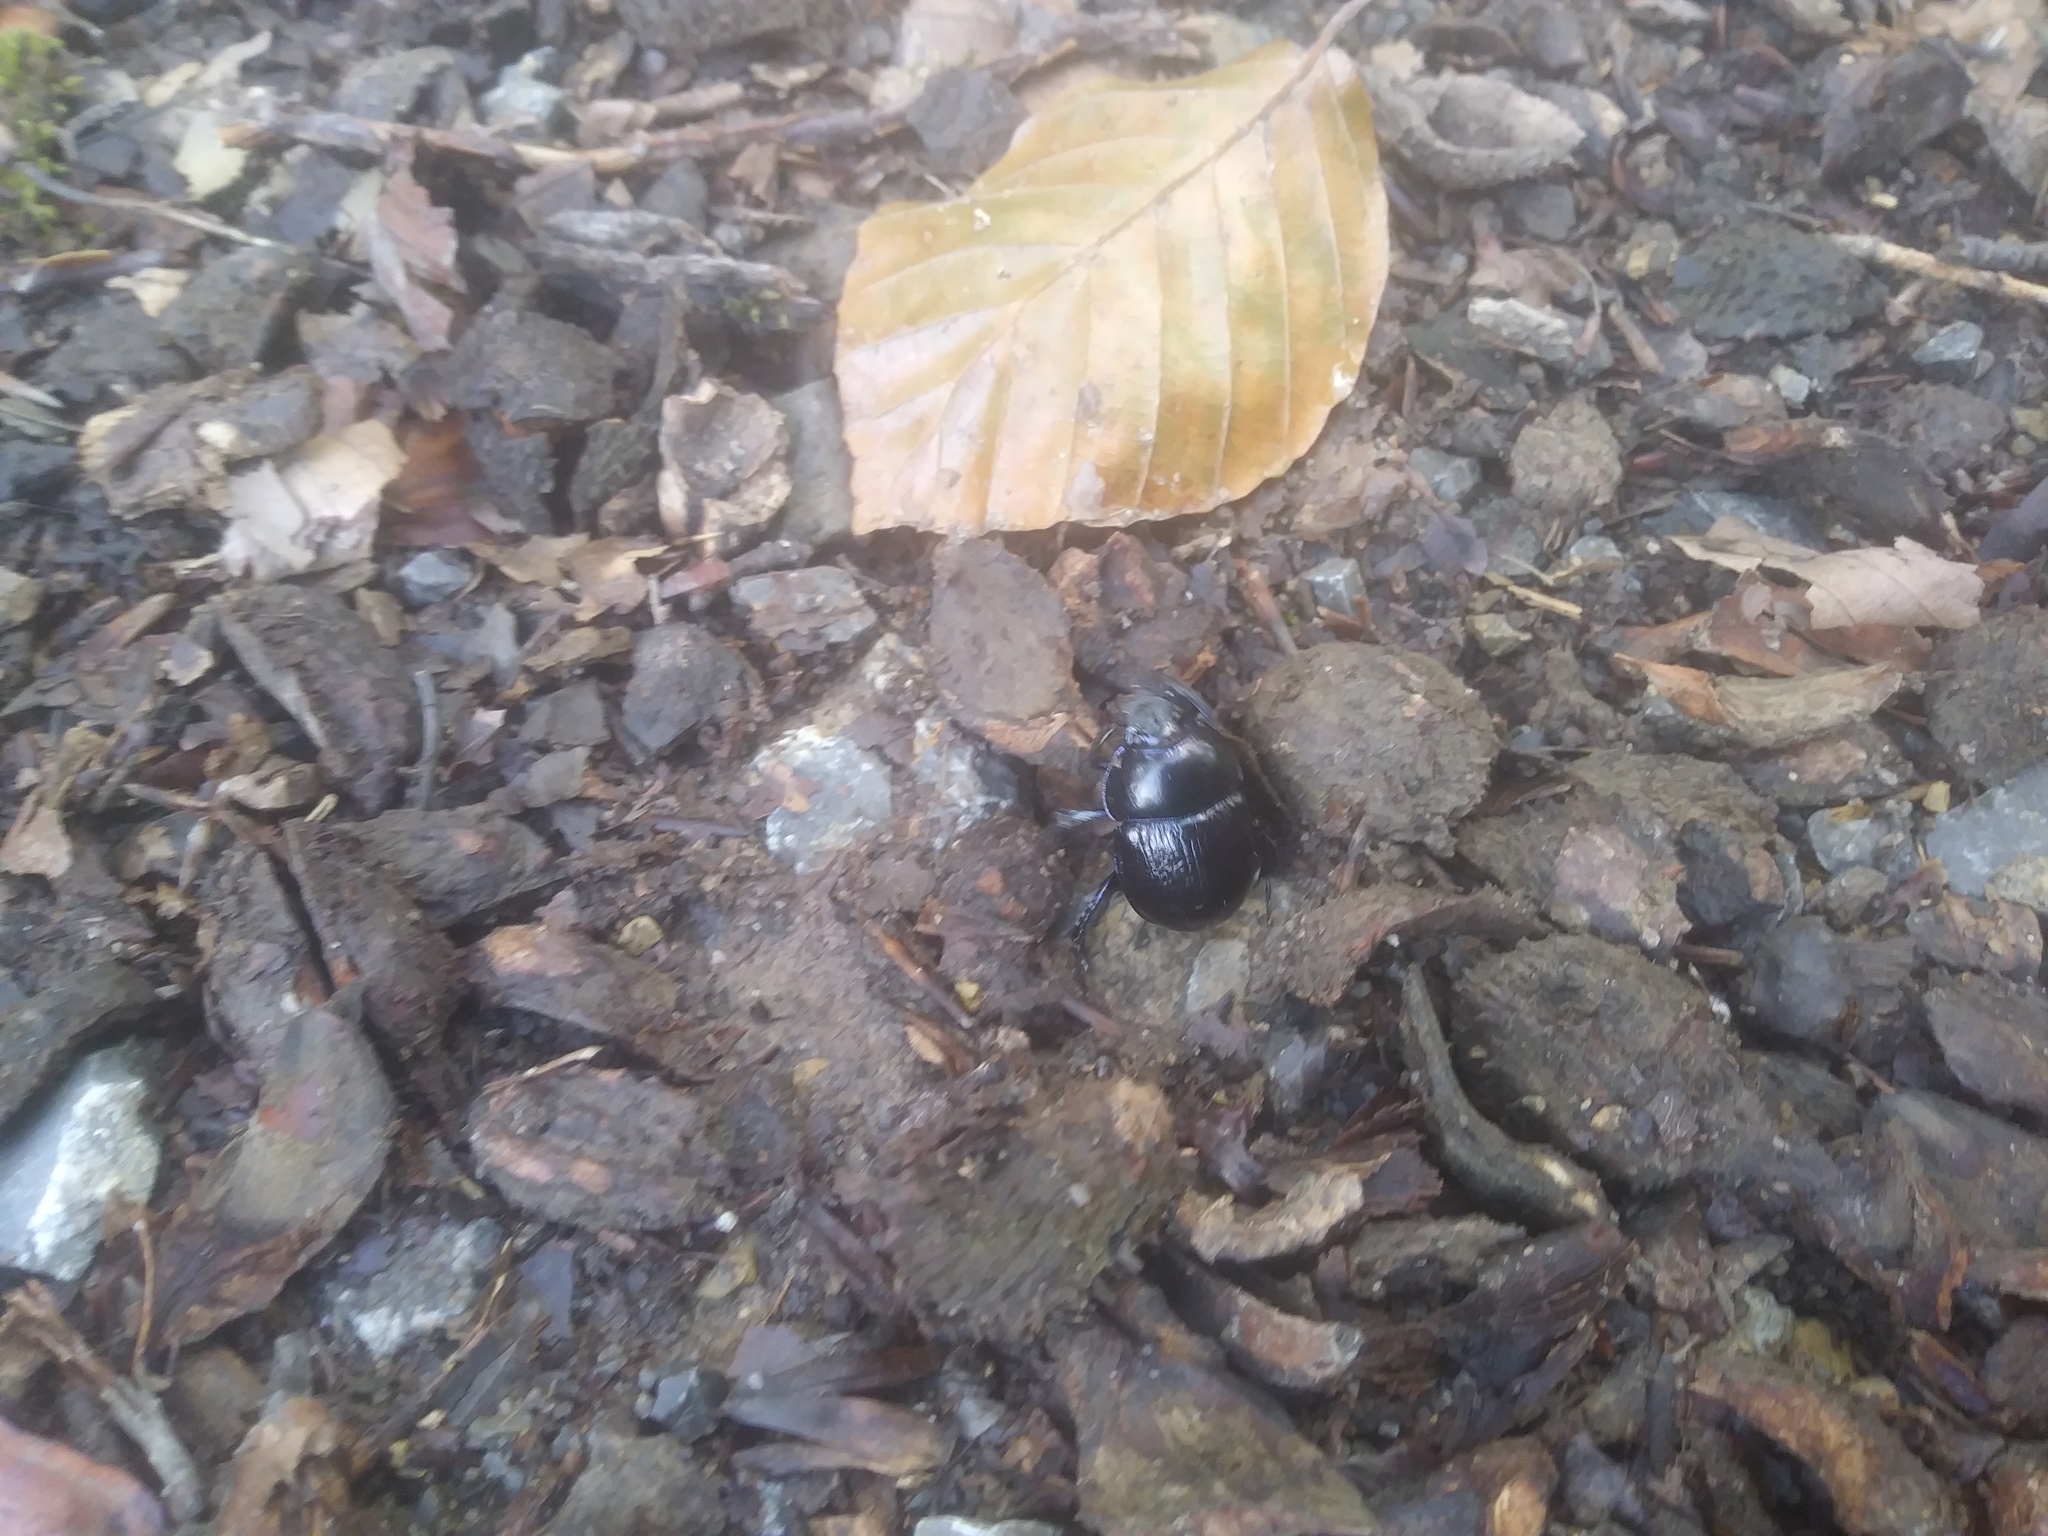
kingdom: Animalia
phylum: Arthropoda
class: Insecta
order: Coleoptera
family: Geotrupidae
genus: Anoplotrupes
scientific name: Anoplotrupes stercorosus
